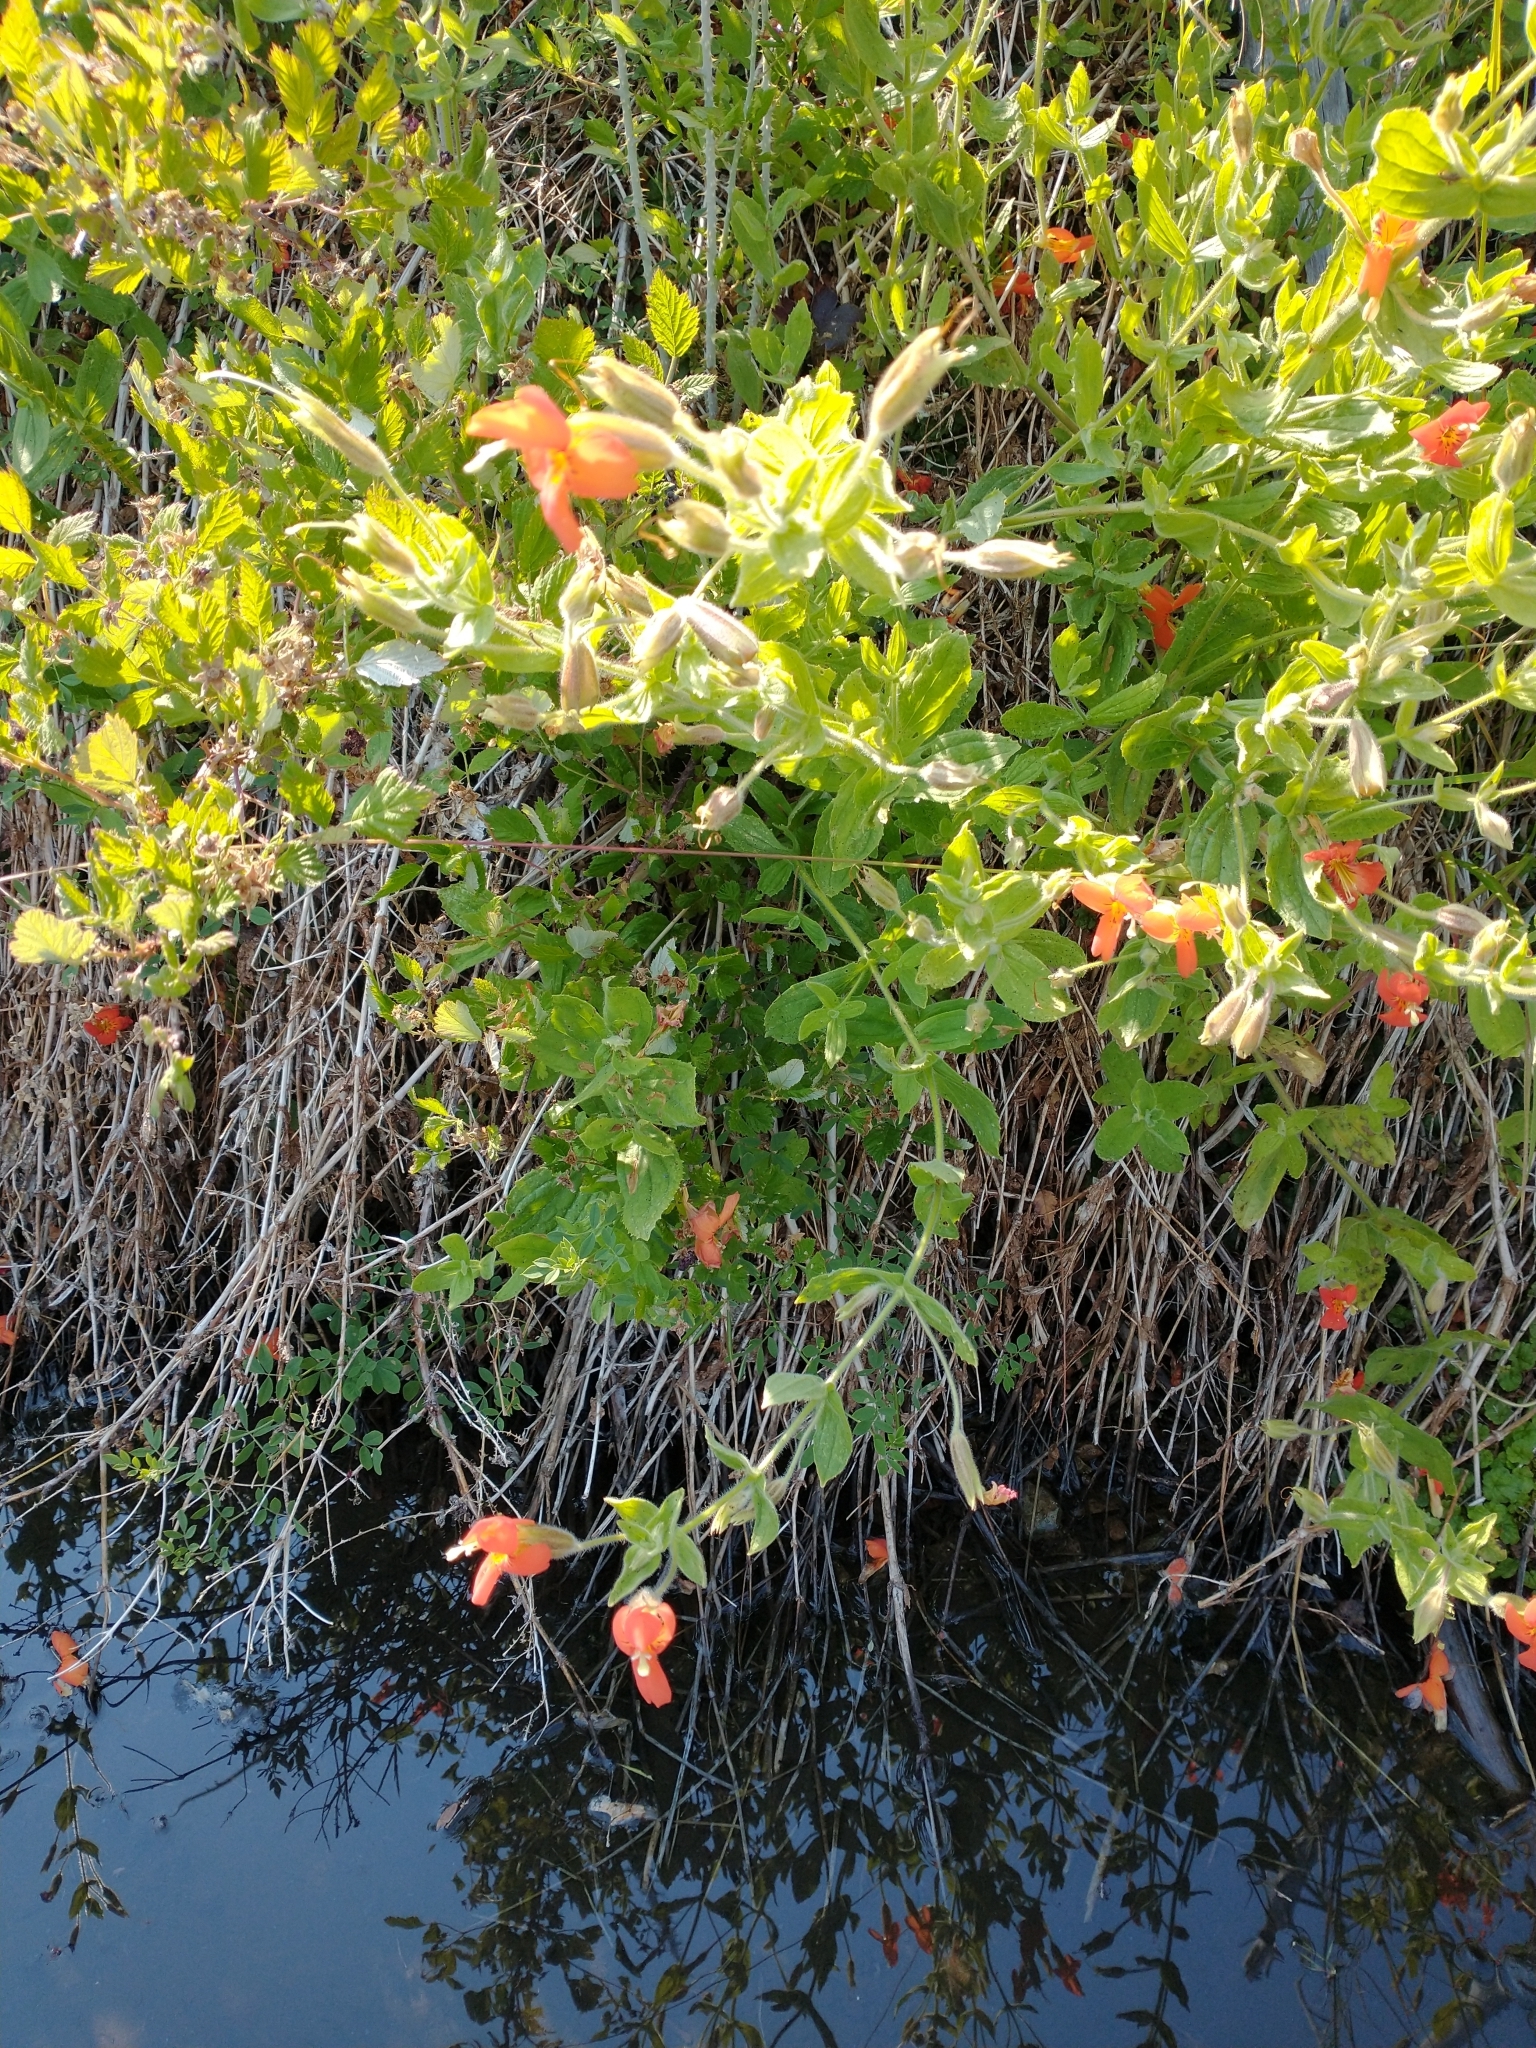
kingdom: Plantae
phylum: Tracheophyta
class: Magnoliopsida
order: Lamiales
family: Phrymaceae
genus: Erythranthe
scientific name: Erythranthe cardinalis
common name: Scarlet monkey-flower
